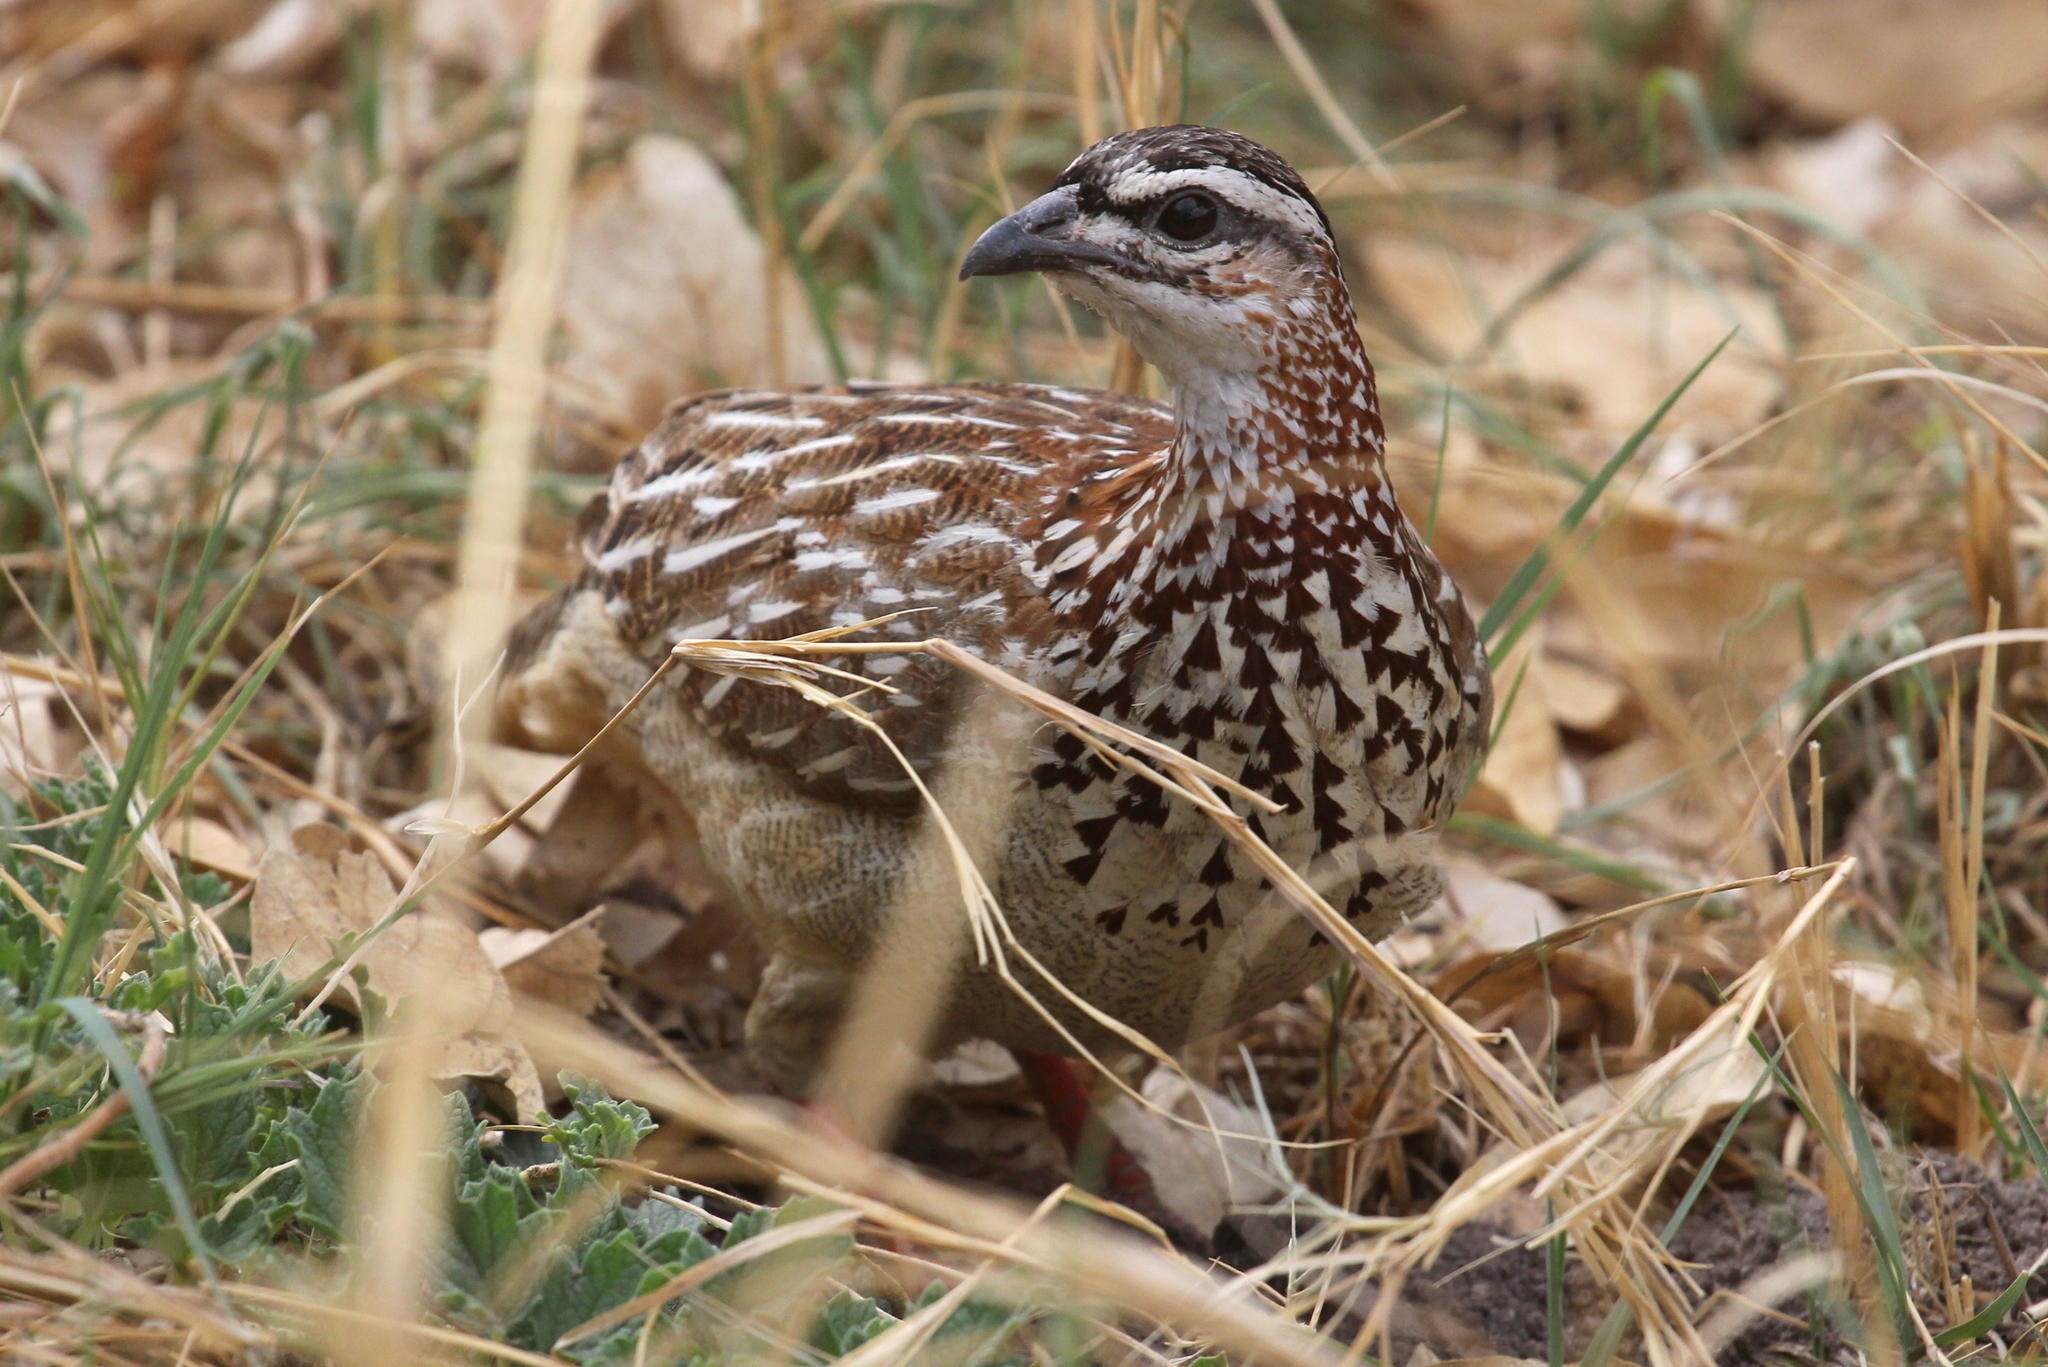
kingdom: Animalia
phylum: Chordata
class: Aves
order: Galliformes
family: Phasianidae
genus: Ortygornis
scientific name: Ortygornis sephaena
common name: Crested francolin
